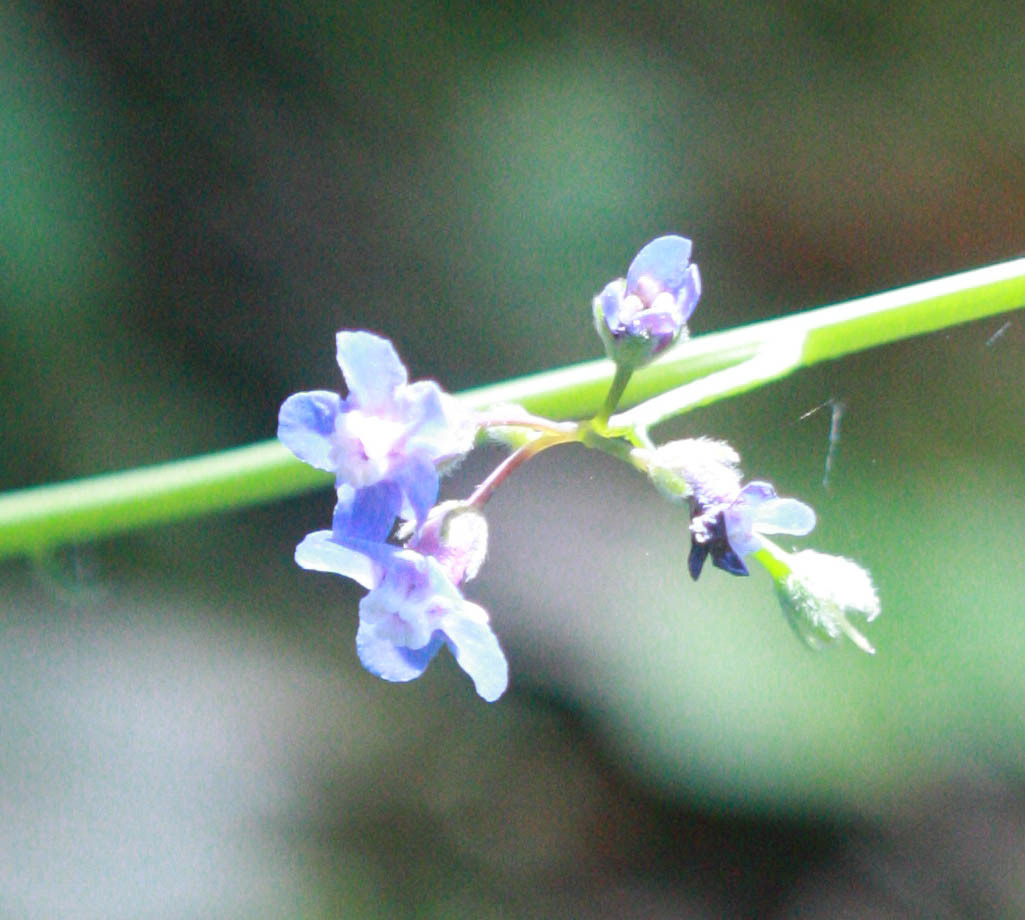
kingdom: Plantae
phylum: Tracheophyta
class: Magnoliopsida
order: Boraginales
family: Boraginaceae
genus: Adelinia
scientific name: Adelinia grande
